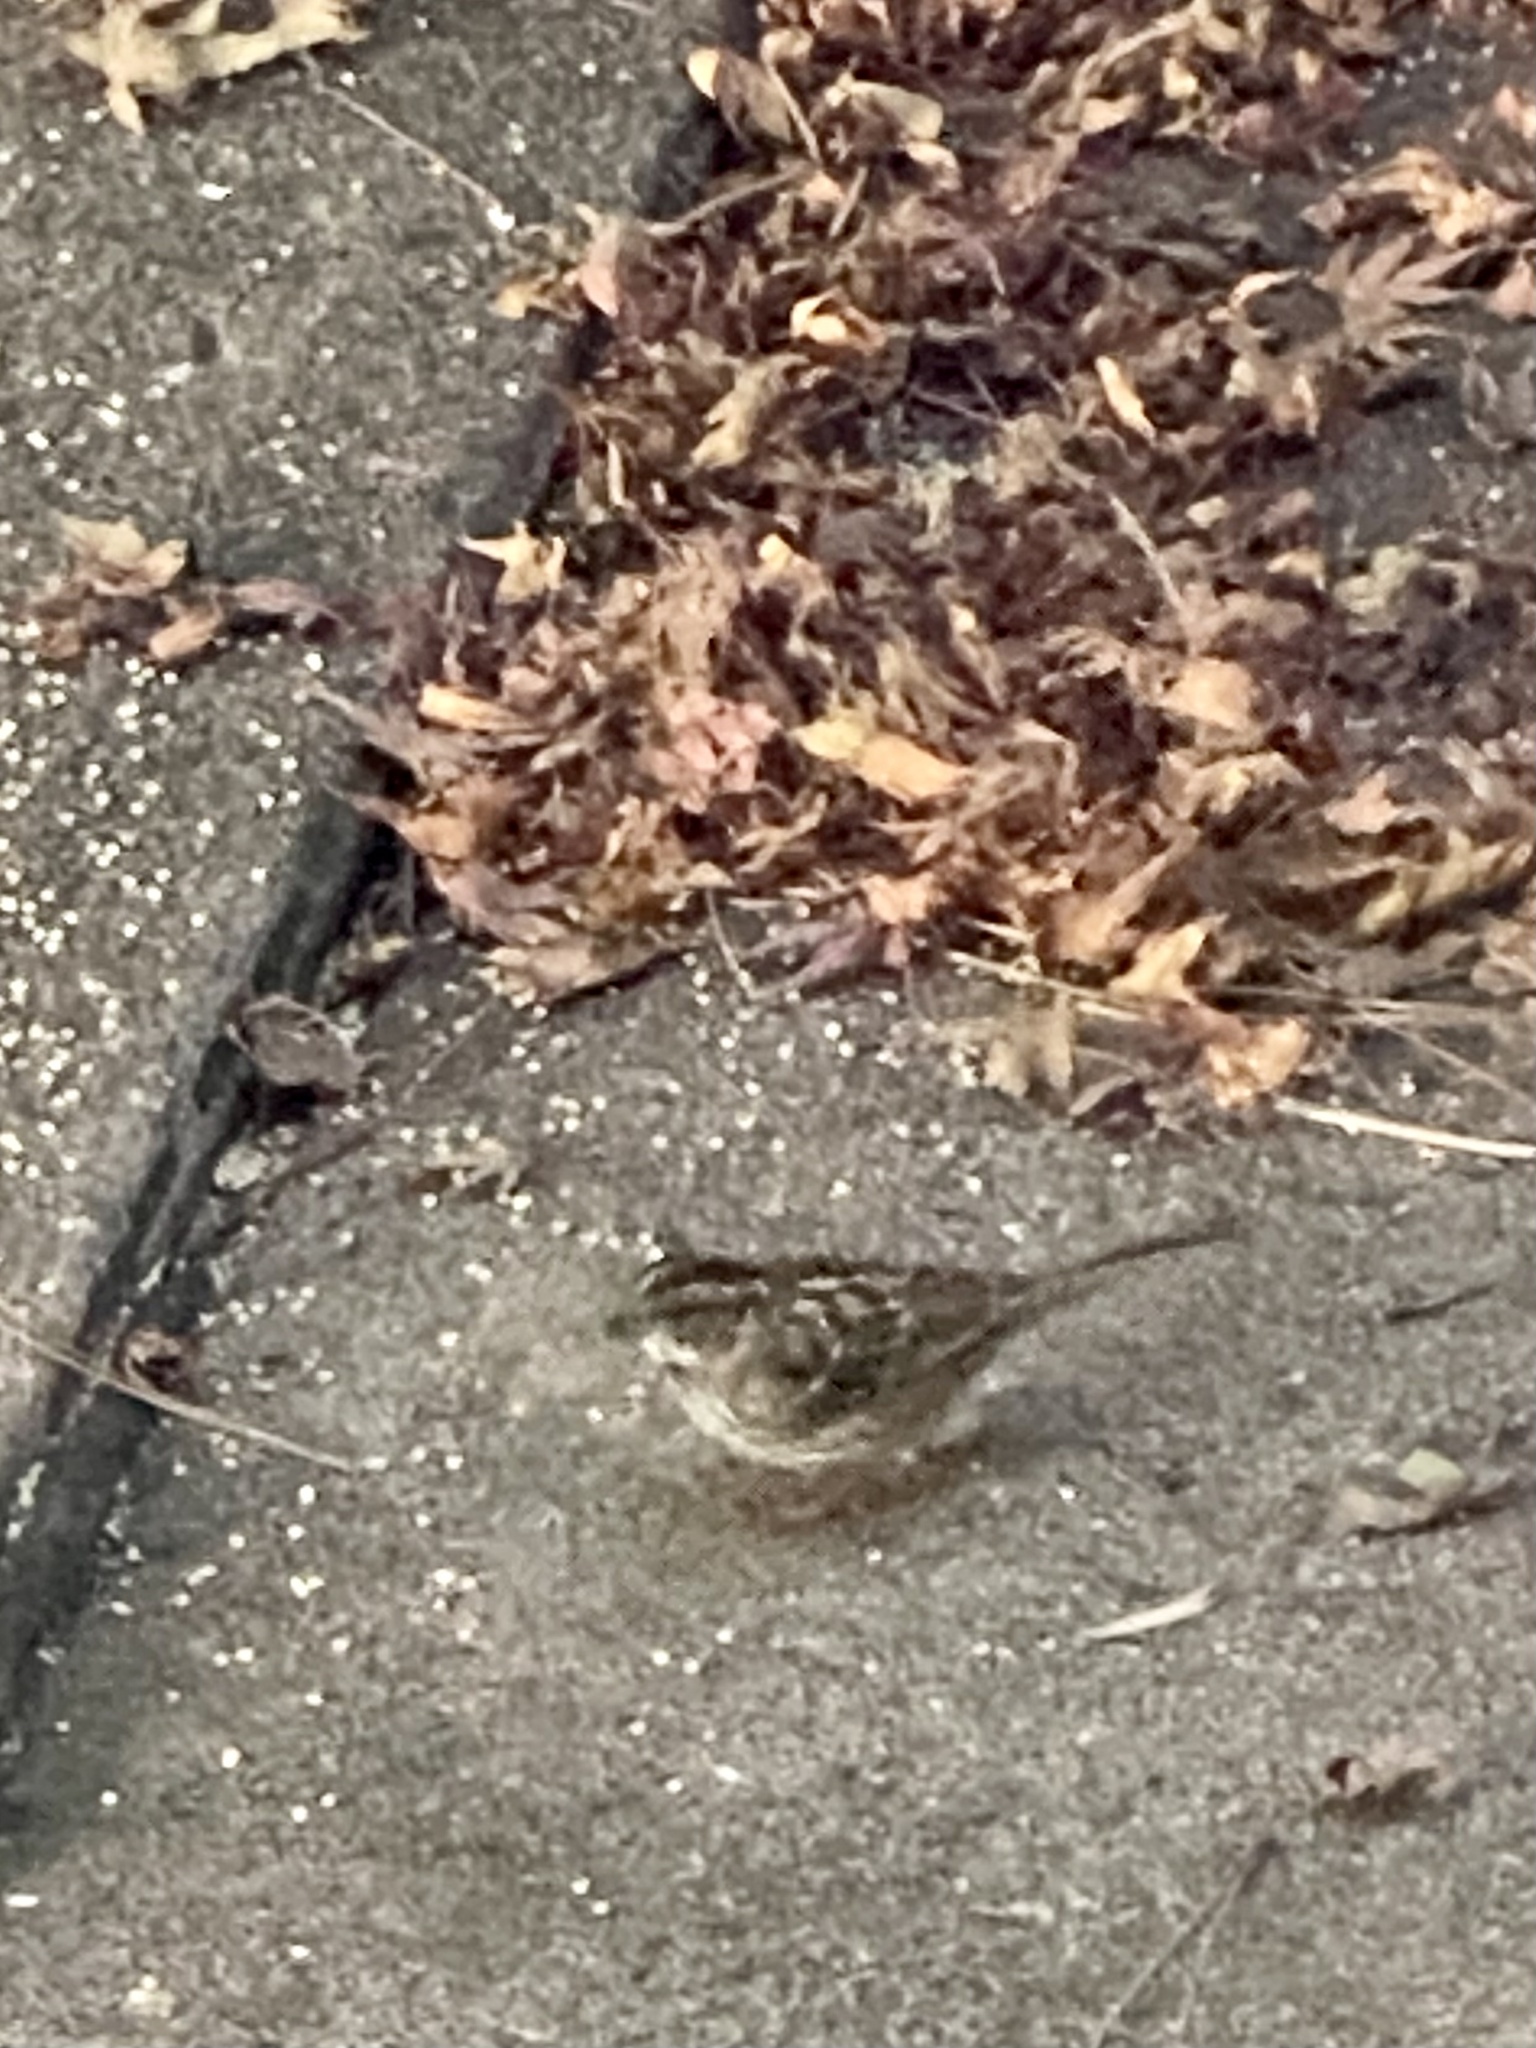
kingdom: Animalia
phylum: Chordata
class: Aves
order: Passeriformes
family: Passerellidae
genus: Zonotrichia
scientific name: Zonotrichia albicollis
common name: White-throated sparrow
